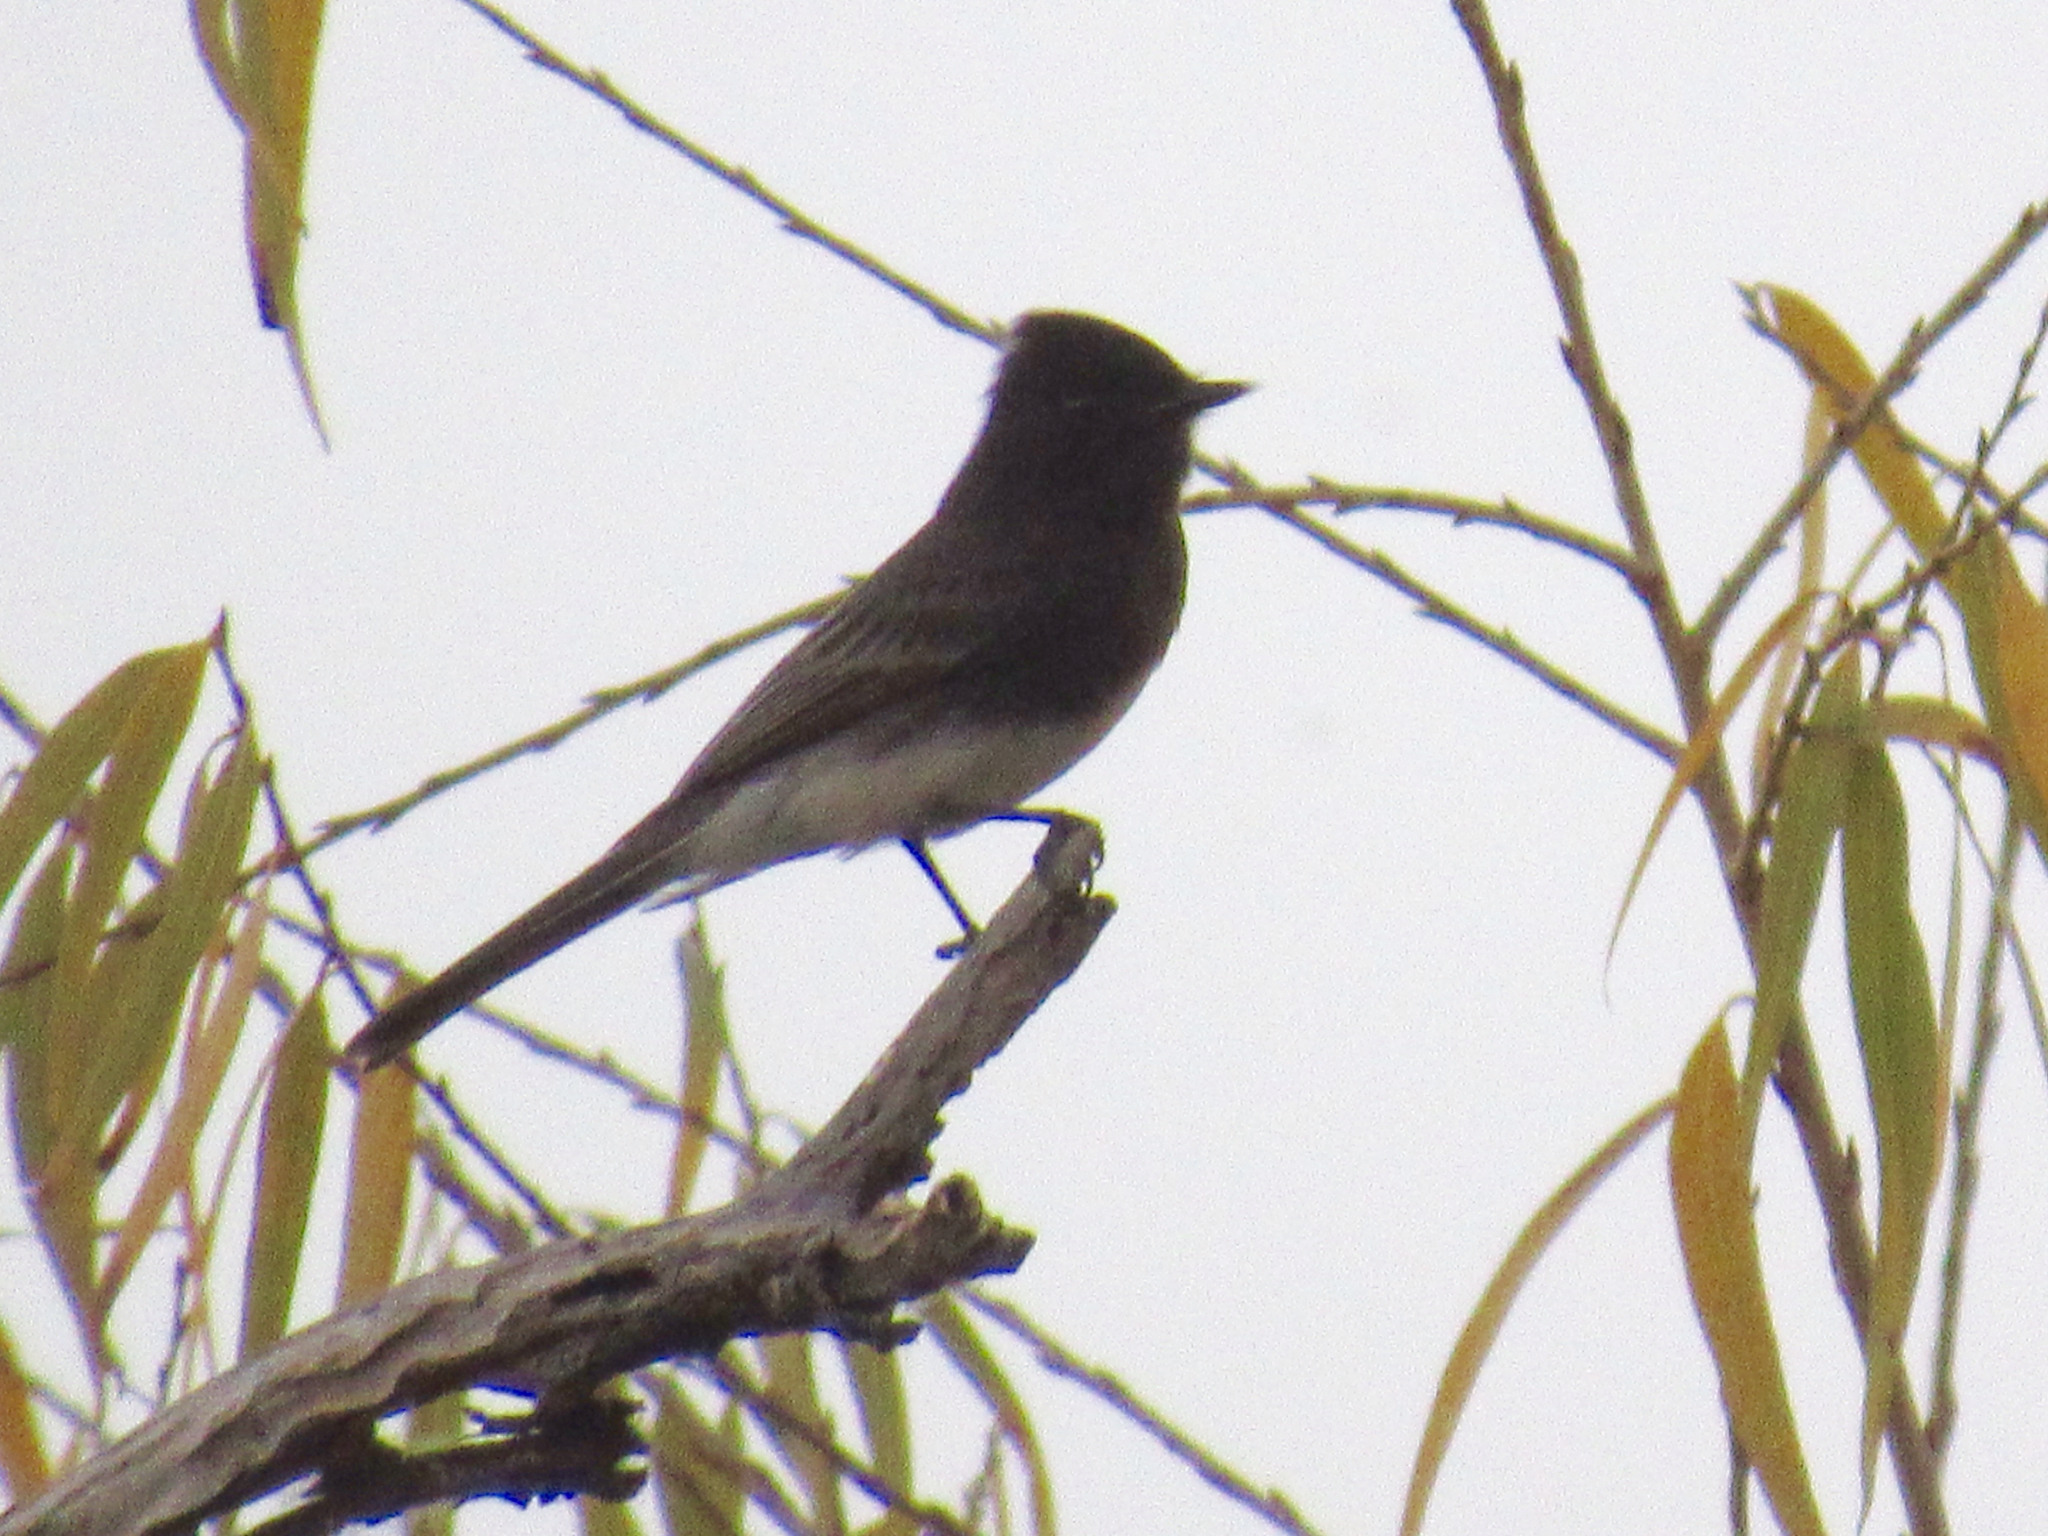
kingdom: Animalia
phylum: Chordata
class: Aves
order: Passeriformes
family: Tyrannidae
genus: Sayornis
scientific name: Sayornis nigricans
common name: Black phoebe
